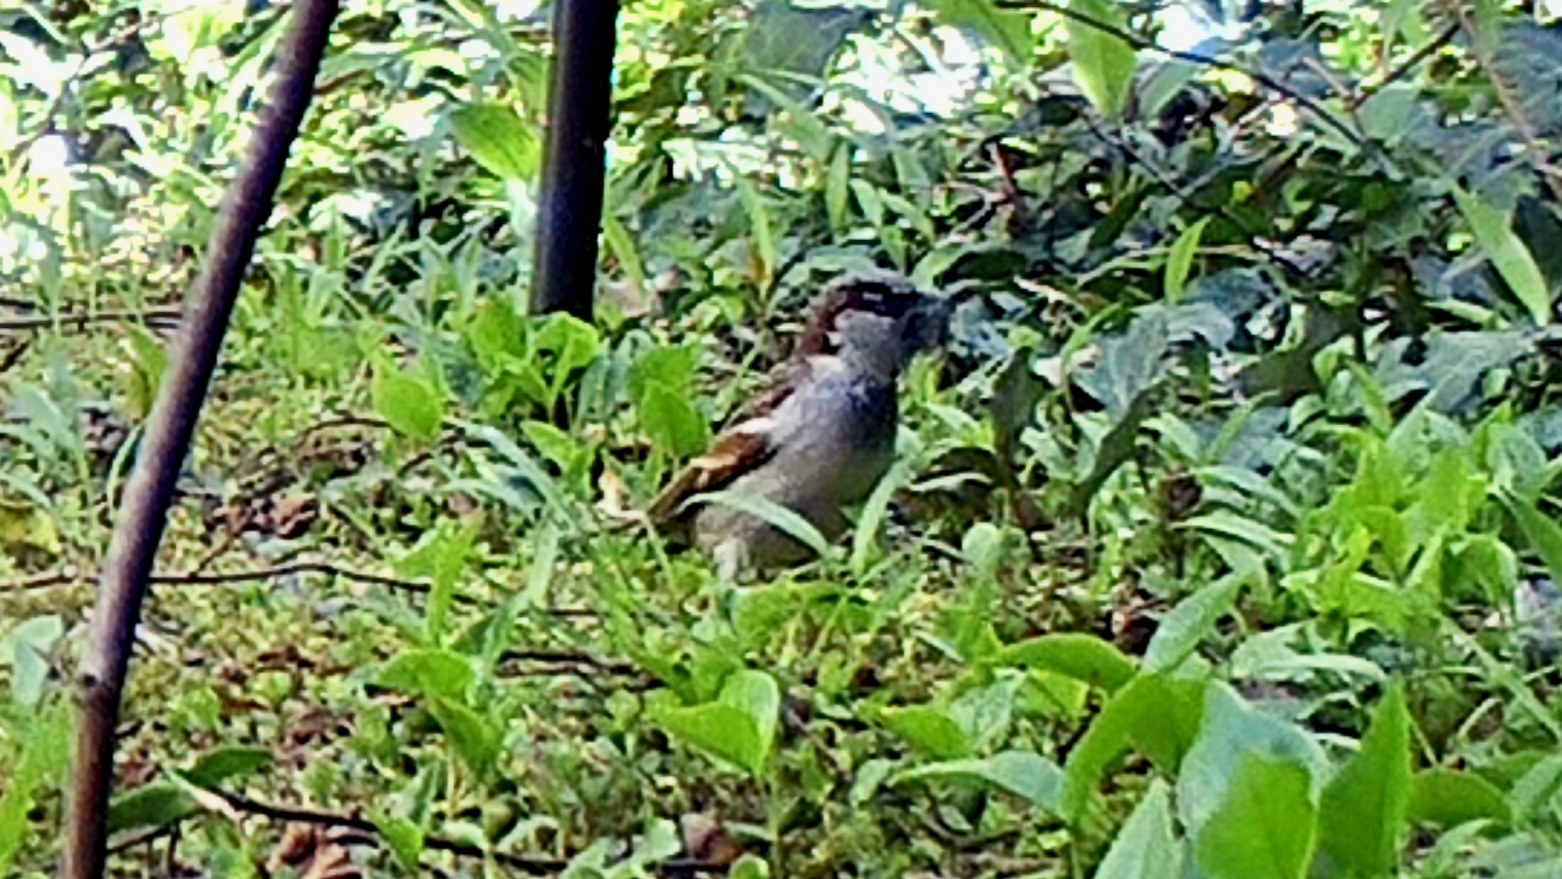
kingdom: Animalia
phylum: Chordata
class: Aves
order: Passeriformes
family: Passeridae
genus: Passer
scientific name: Passer domesticus
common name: House sparrow
